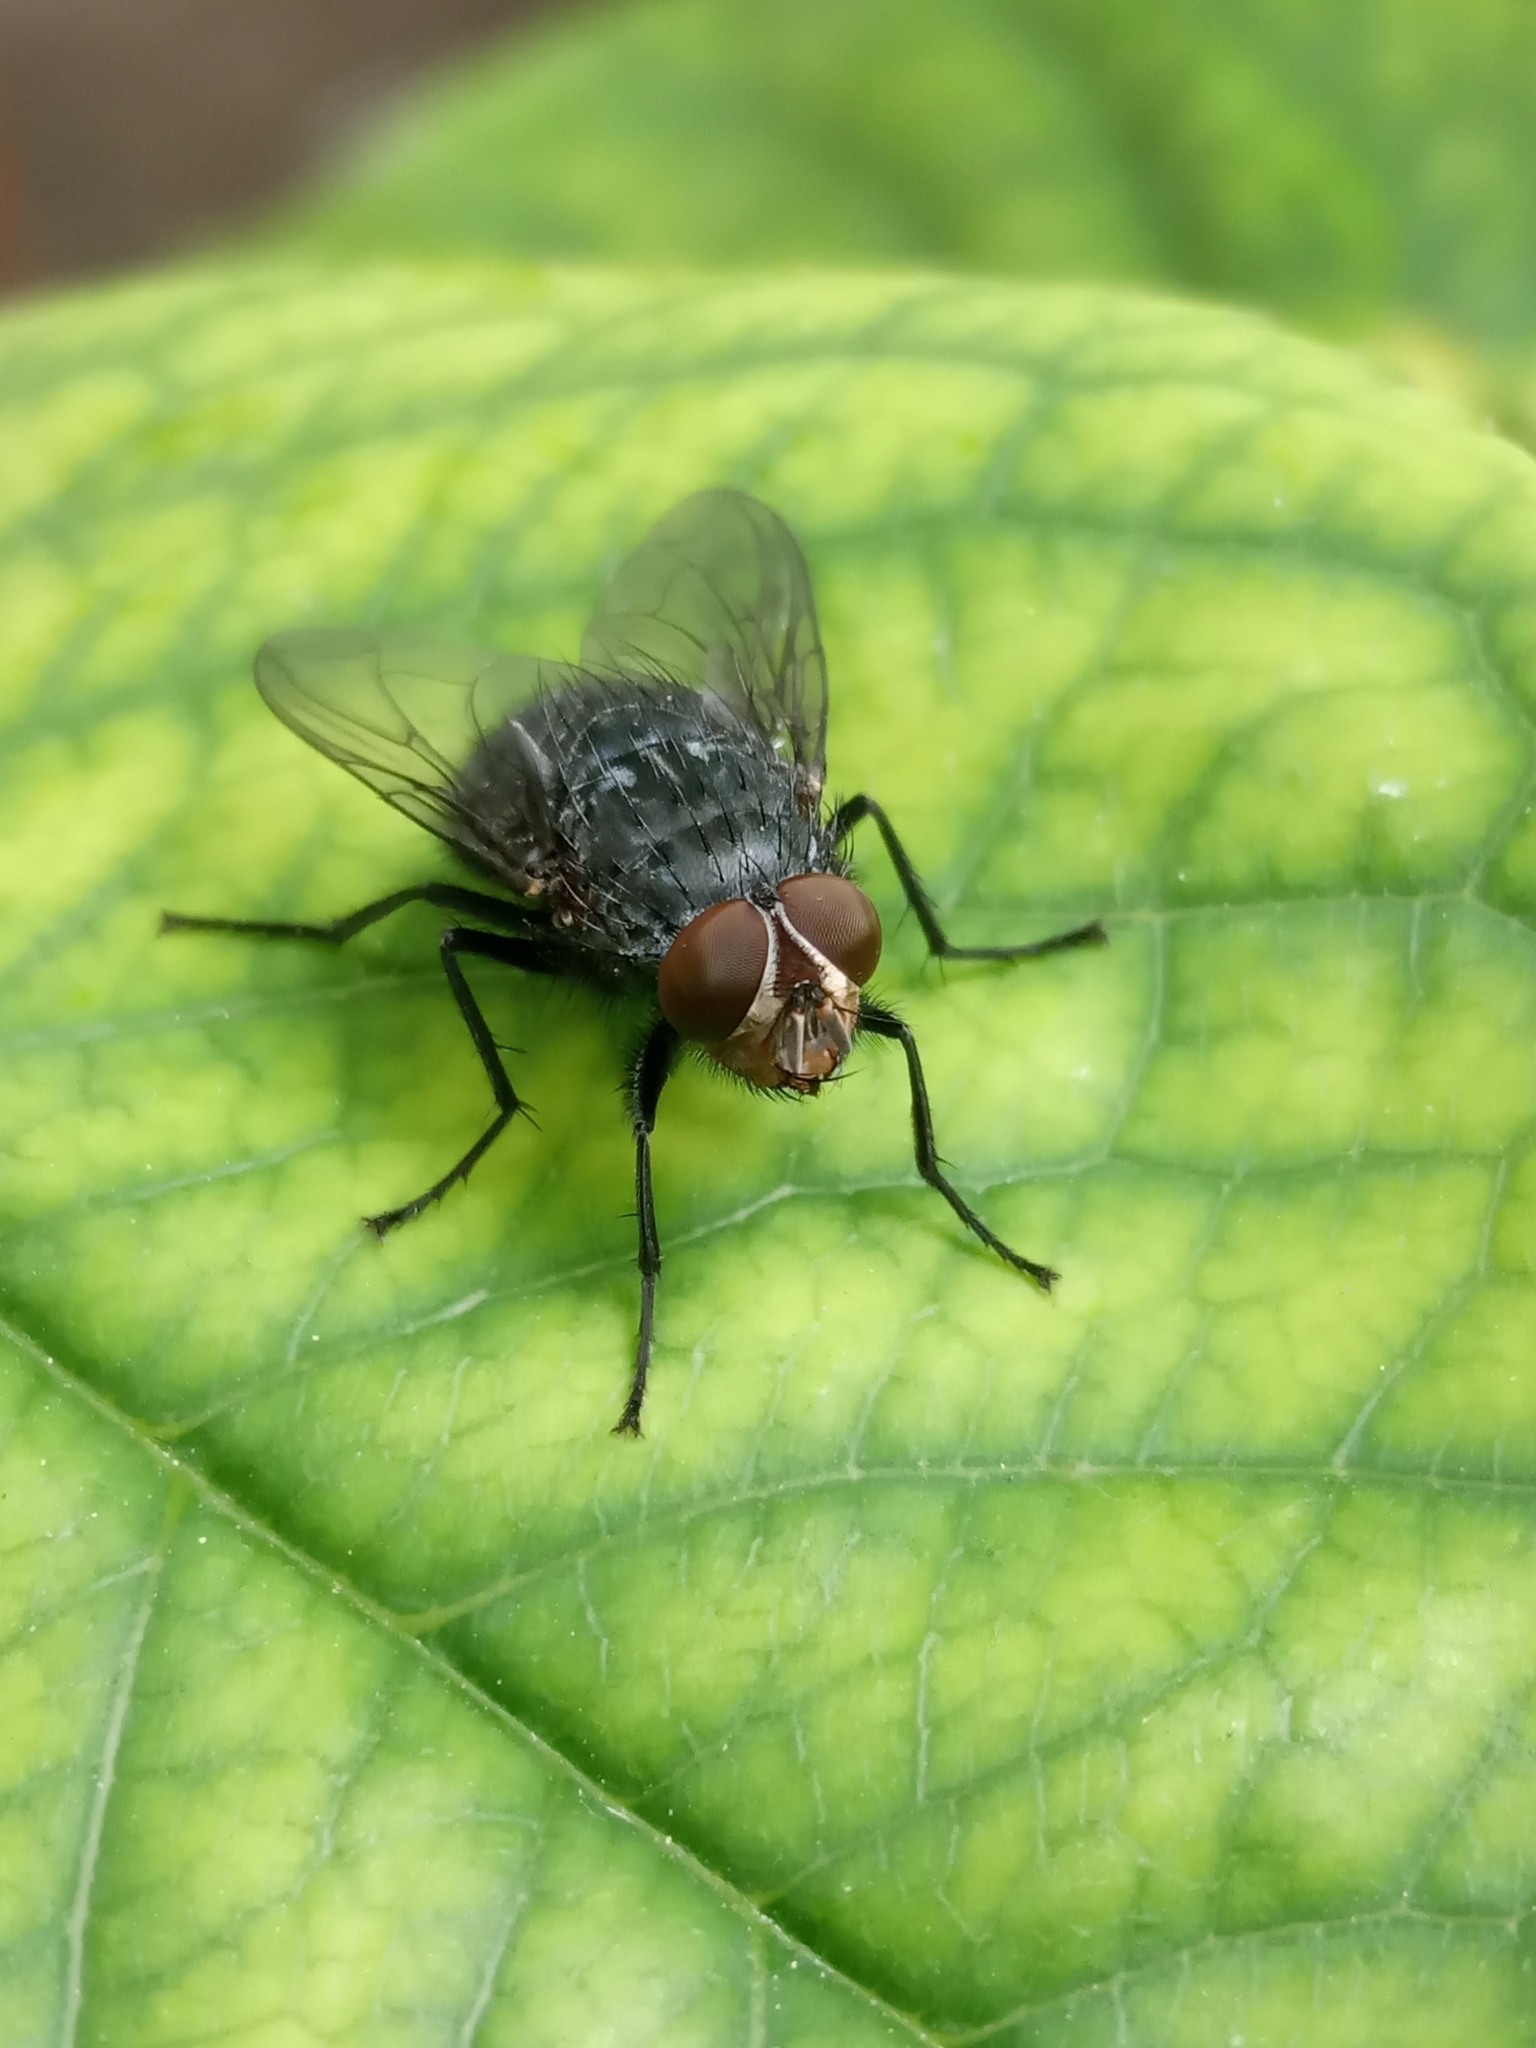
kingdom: Animalia
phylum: Arthropoda
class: Insecta
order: Diptera
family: Calliphoridae
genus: Calliphora
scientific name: Calliphora
